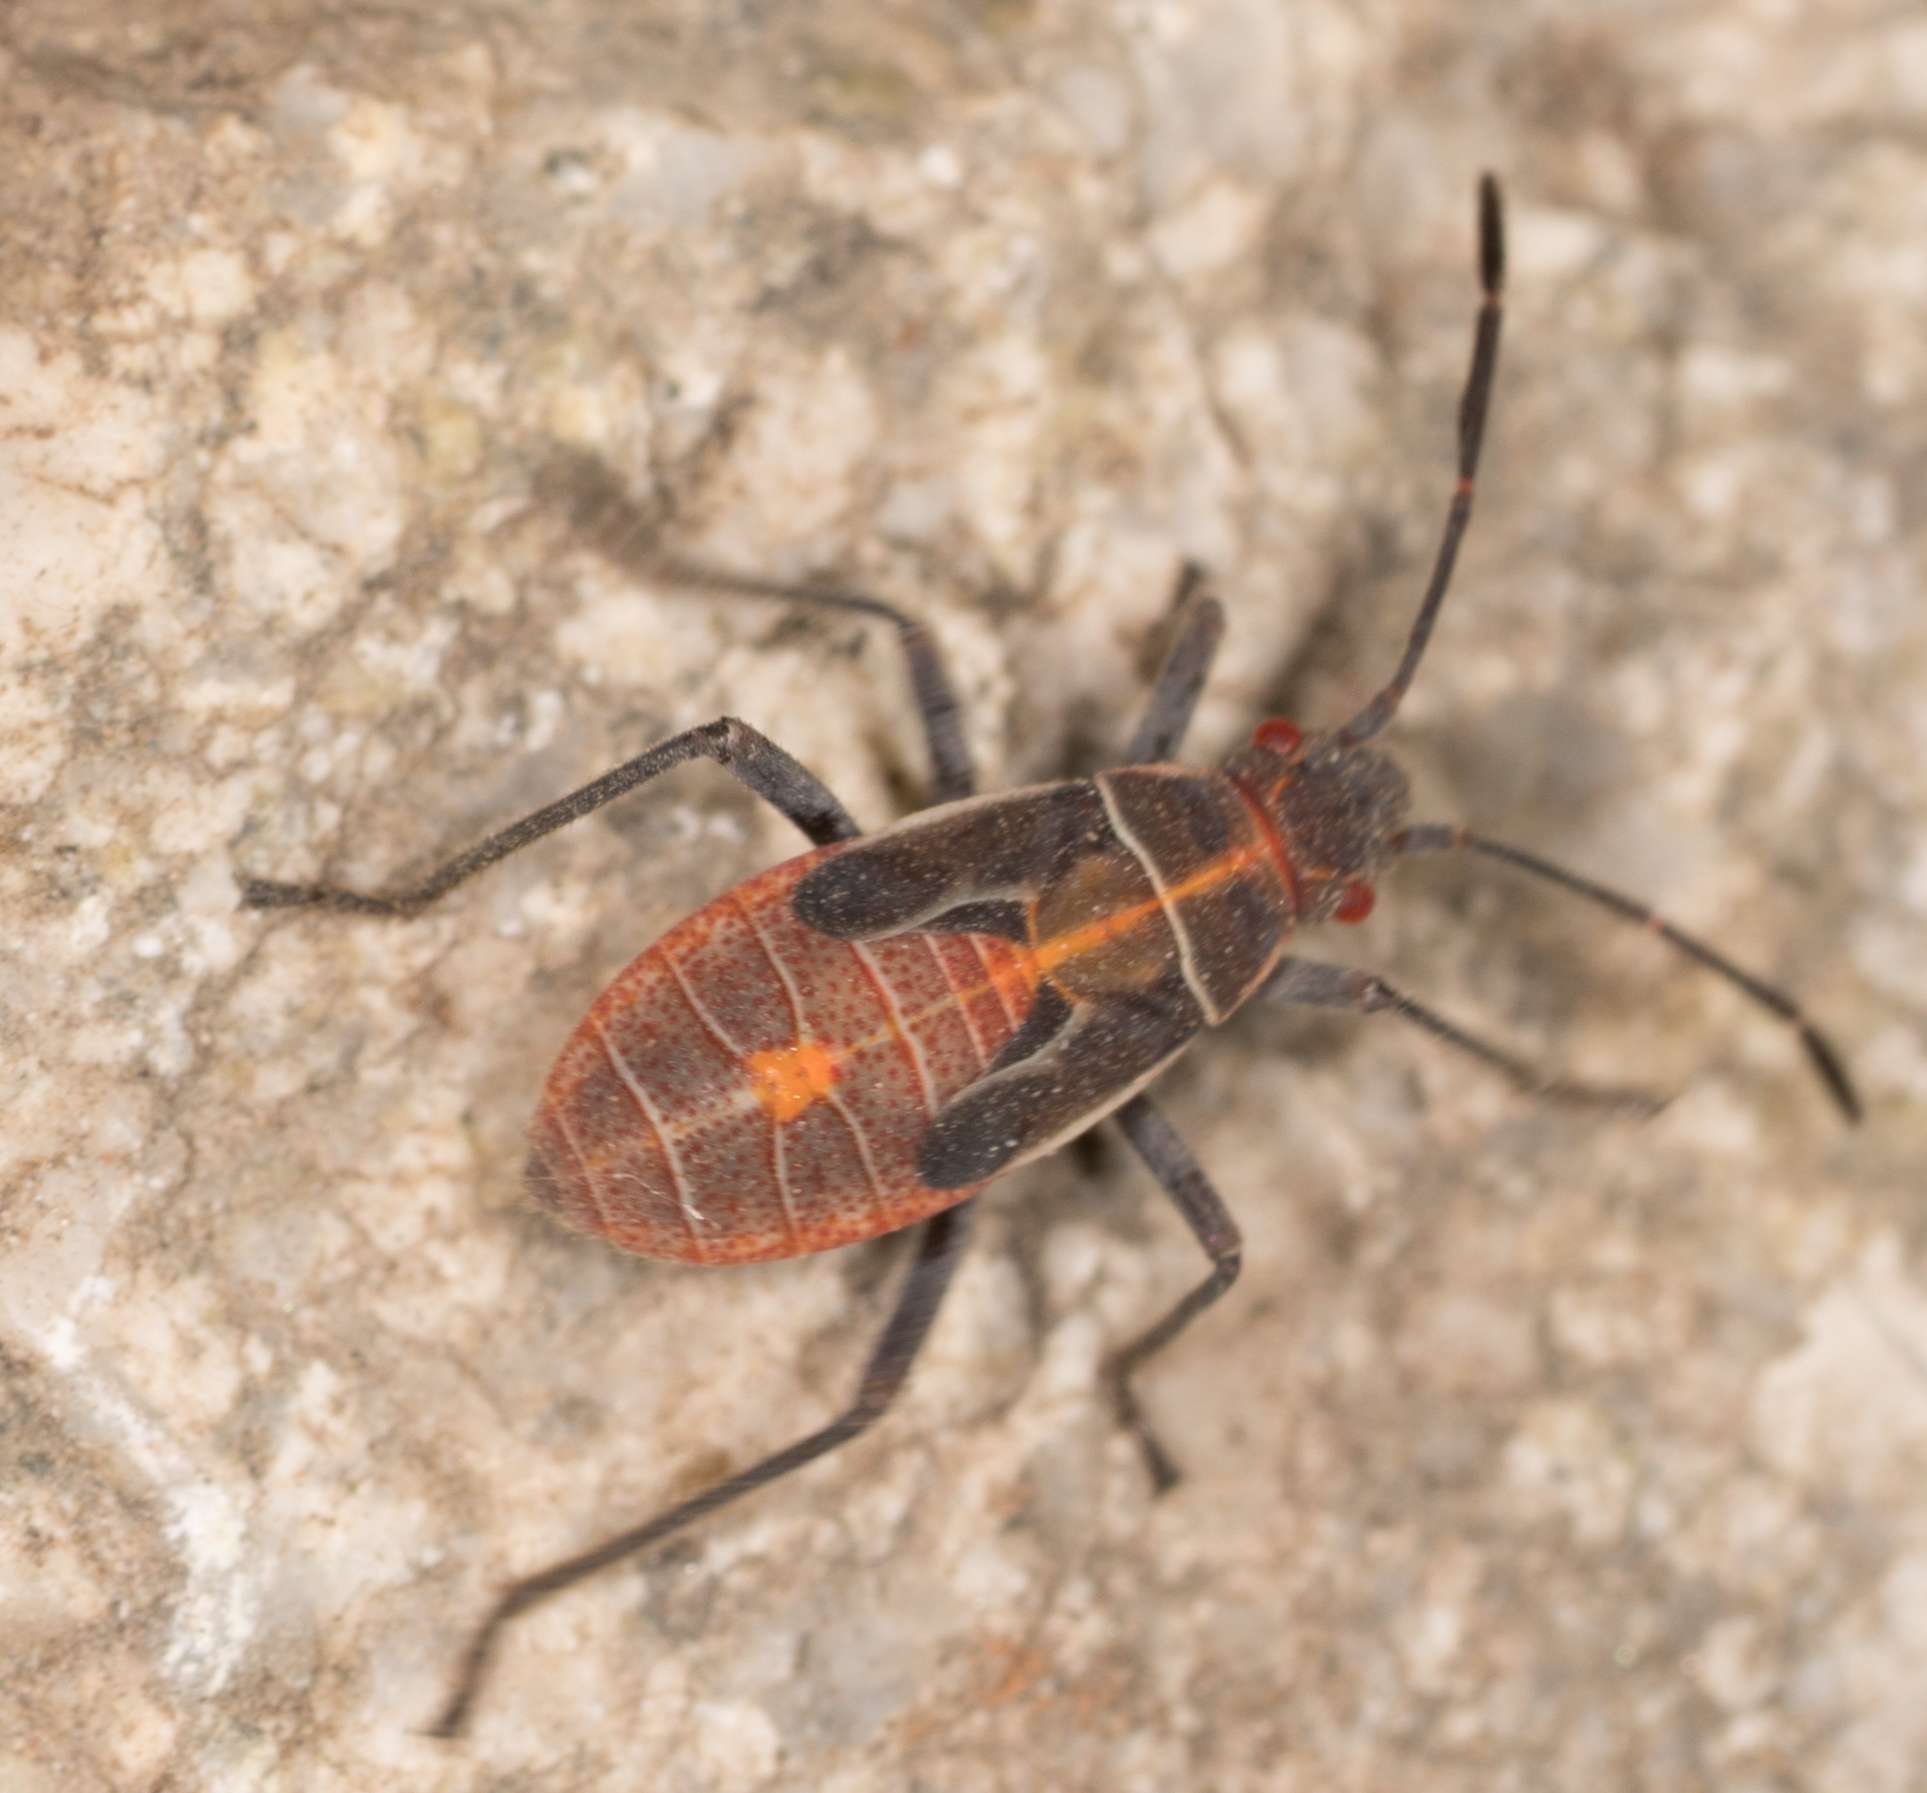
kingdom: Animalia
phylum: Arthropoda
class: Insecta
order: Hemiptera
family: Rhopalidae
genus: Boisea
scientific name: Boisea rubrolineata
